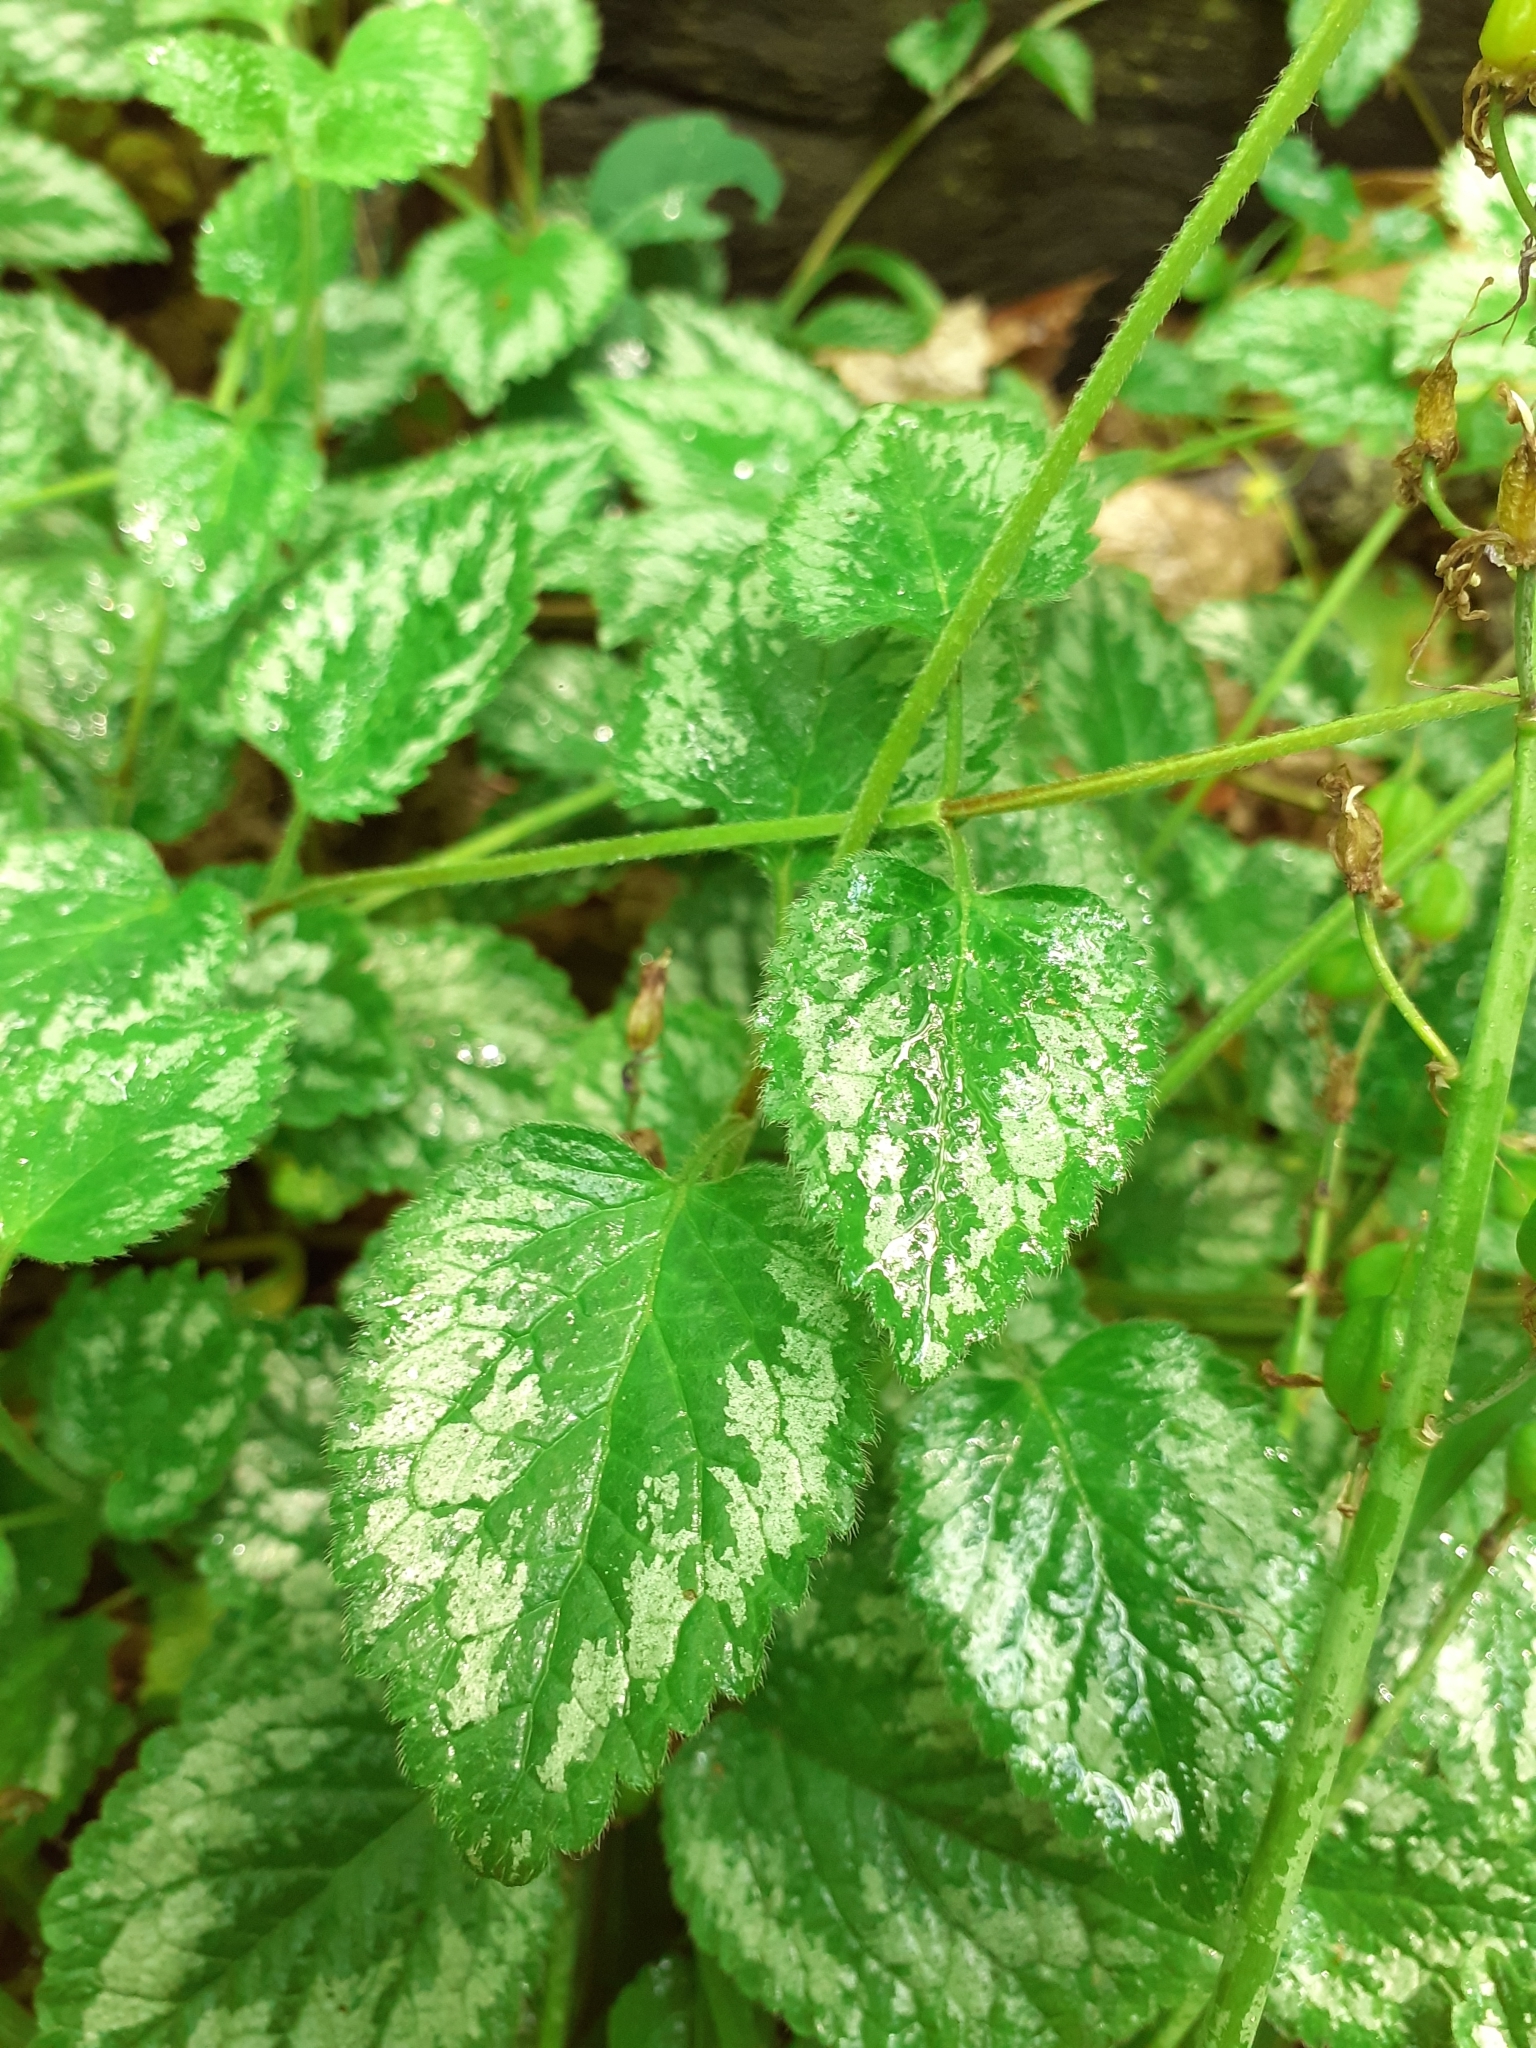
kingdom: Plantae
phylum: Tracheophyta
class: Magnoliopsida
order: Lamiales
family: Lamiaceae
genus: Lamium
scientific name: Lamium galeobdolon
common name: Yellow archangel
